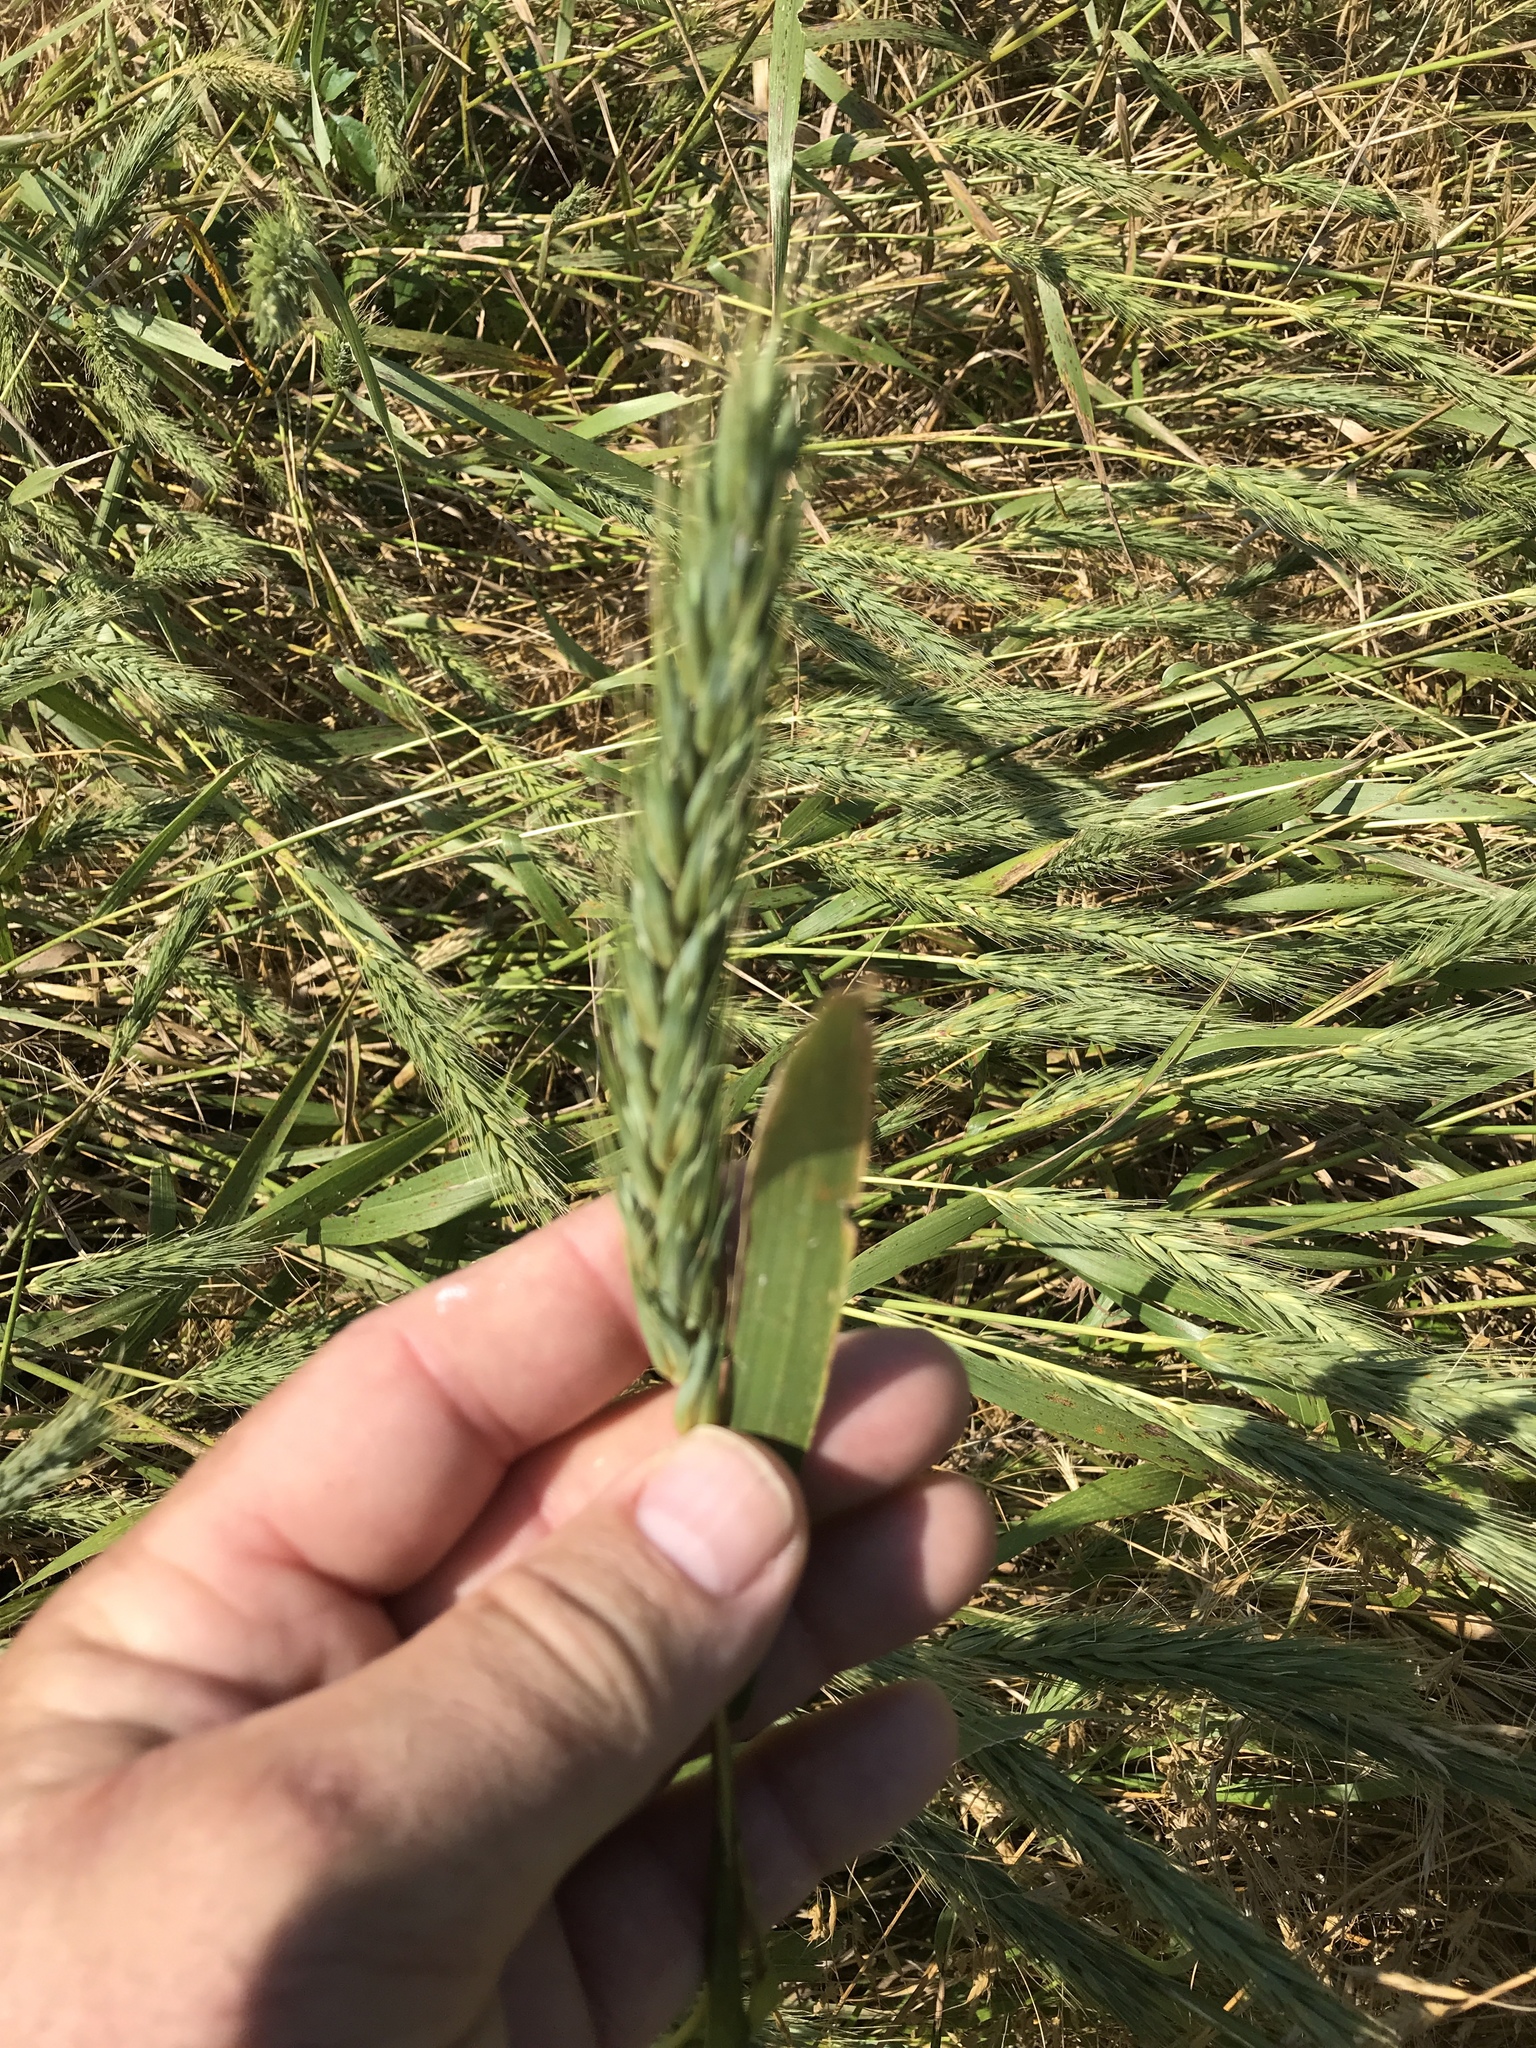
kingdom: Plantae
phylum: Tracheophyta
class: Liliopsida
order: Poales
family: Poaceae
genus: Elymus
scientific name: Elymus virginicus
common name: Common eastern wildrye
